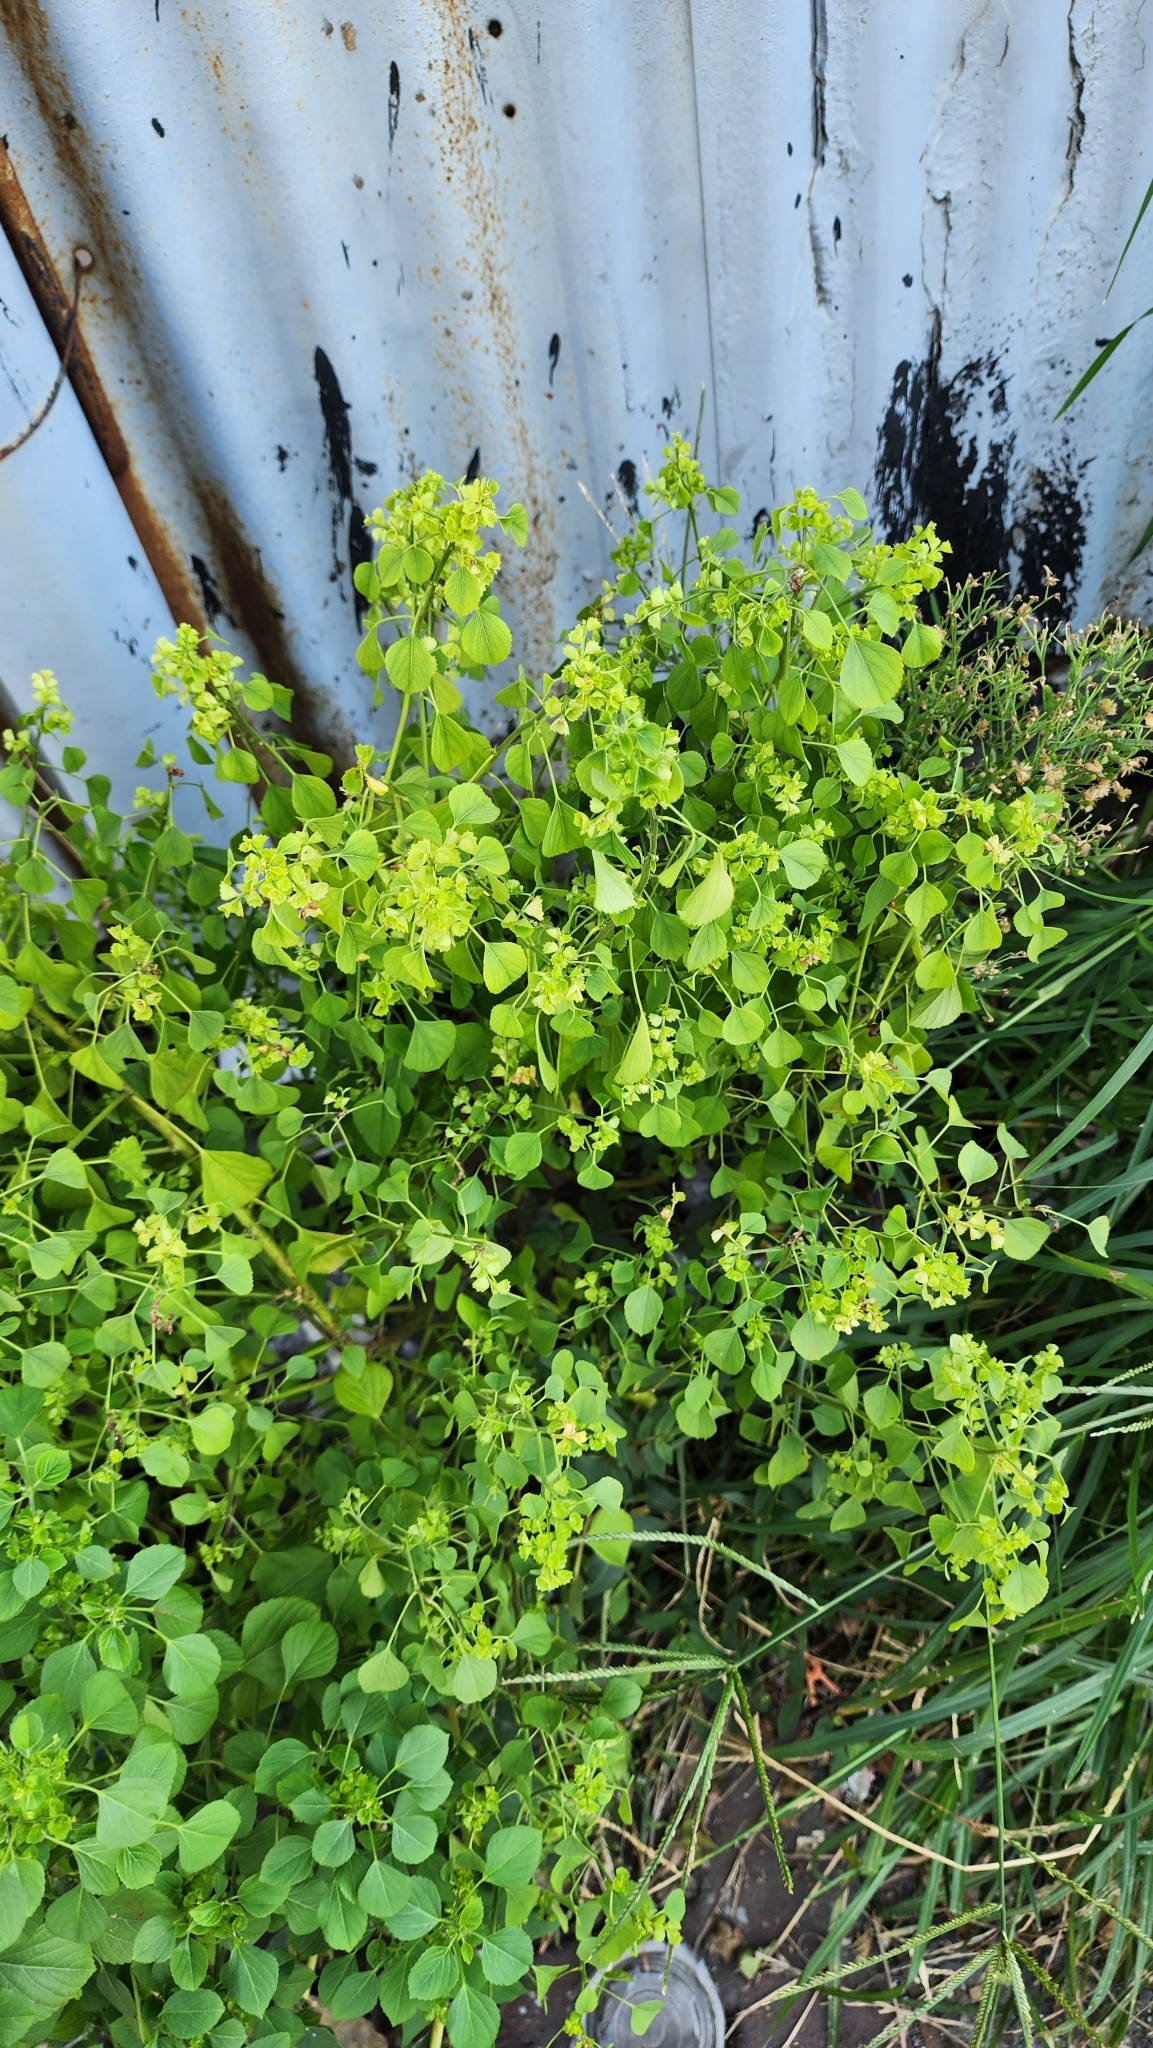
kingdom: Plantae
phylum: Tracheophyta
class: Magnoliopsida
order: Malpighiales
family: Euphorbiaceae
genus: Acalypha
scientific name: Acalypha indica
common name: Indian acalypha
